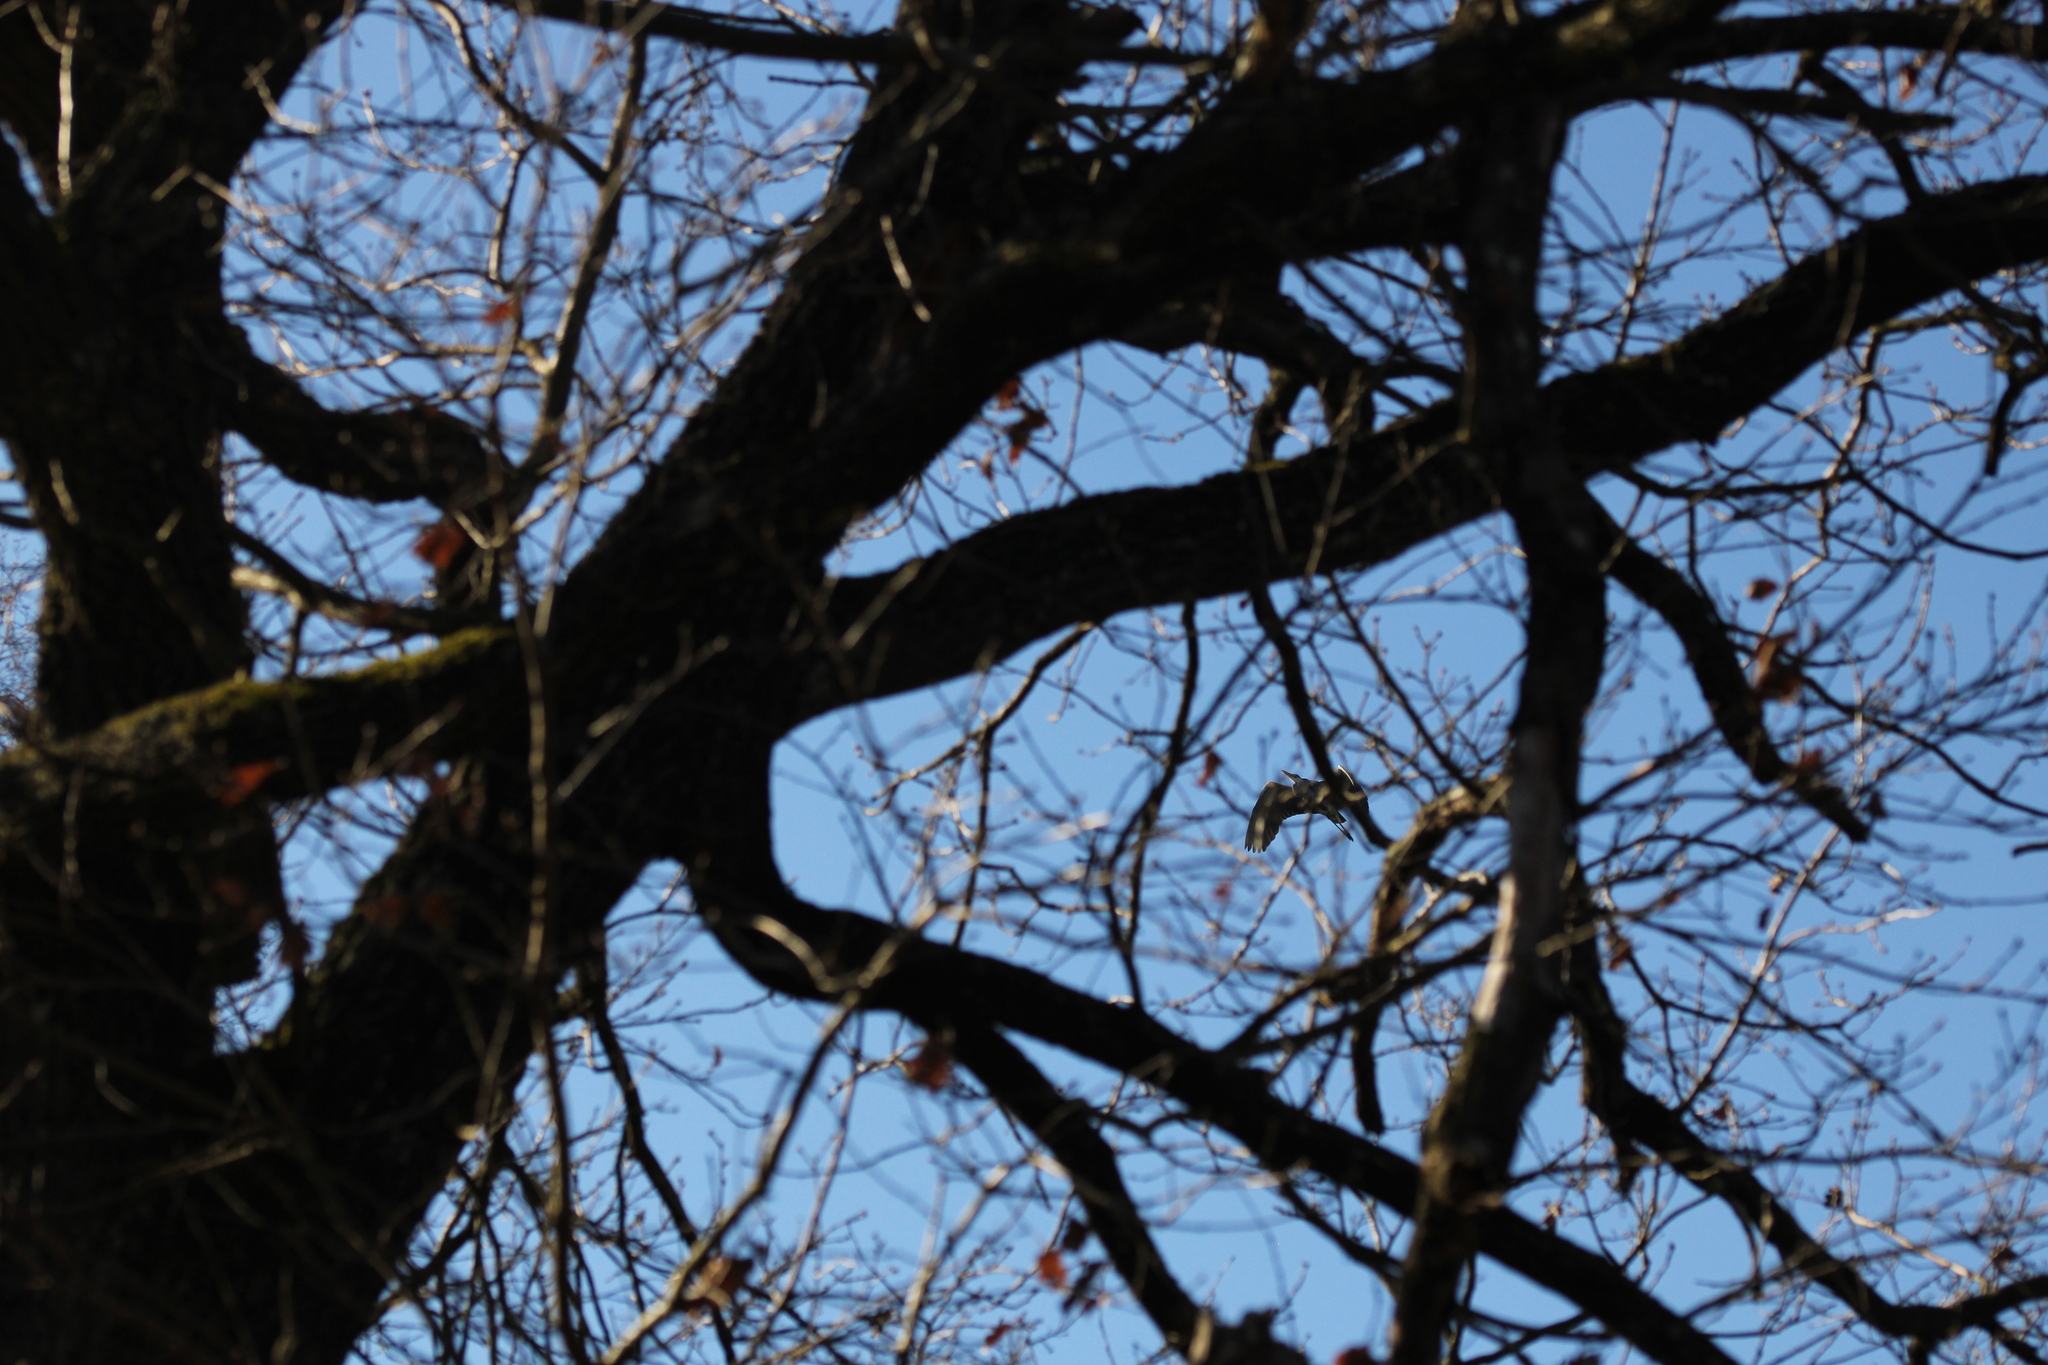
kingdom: Animalia
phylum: Chordata
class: Aves
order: Pelecaniformes
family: Ardeidae
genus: Ardea
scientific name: Ardea cinerea
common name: Grey heron
